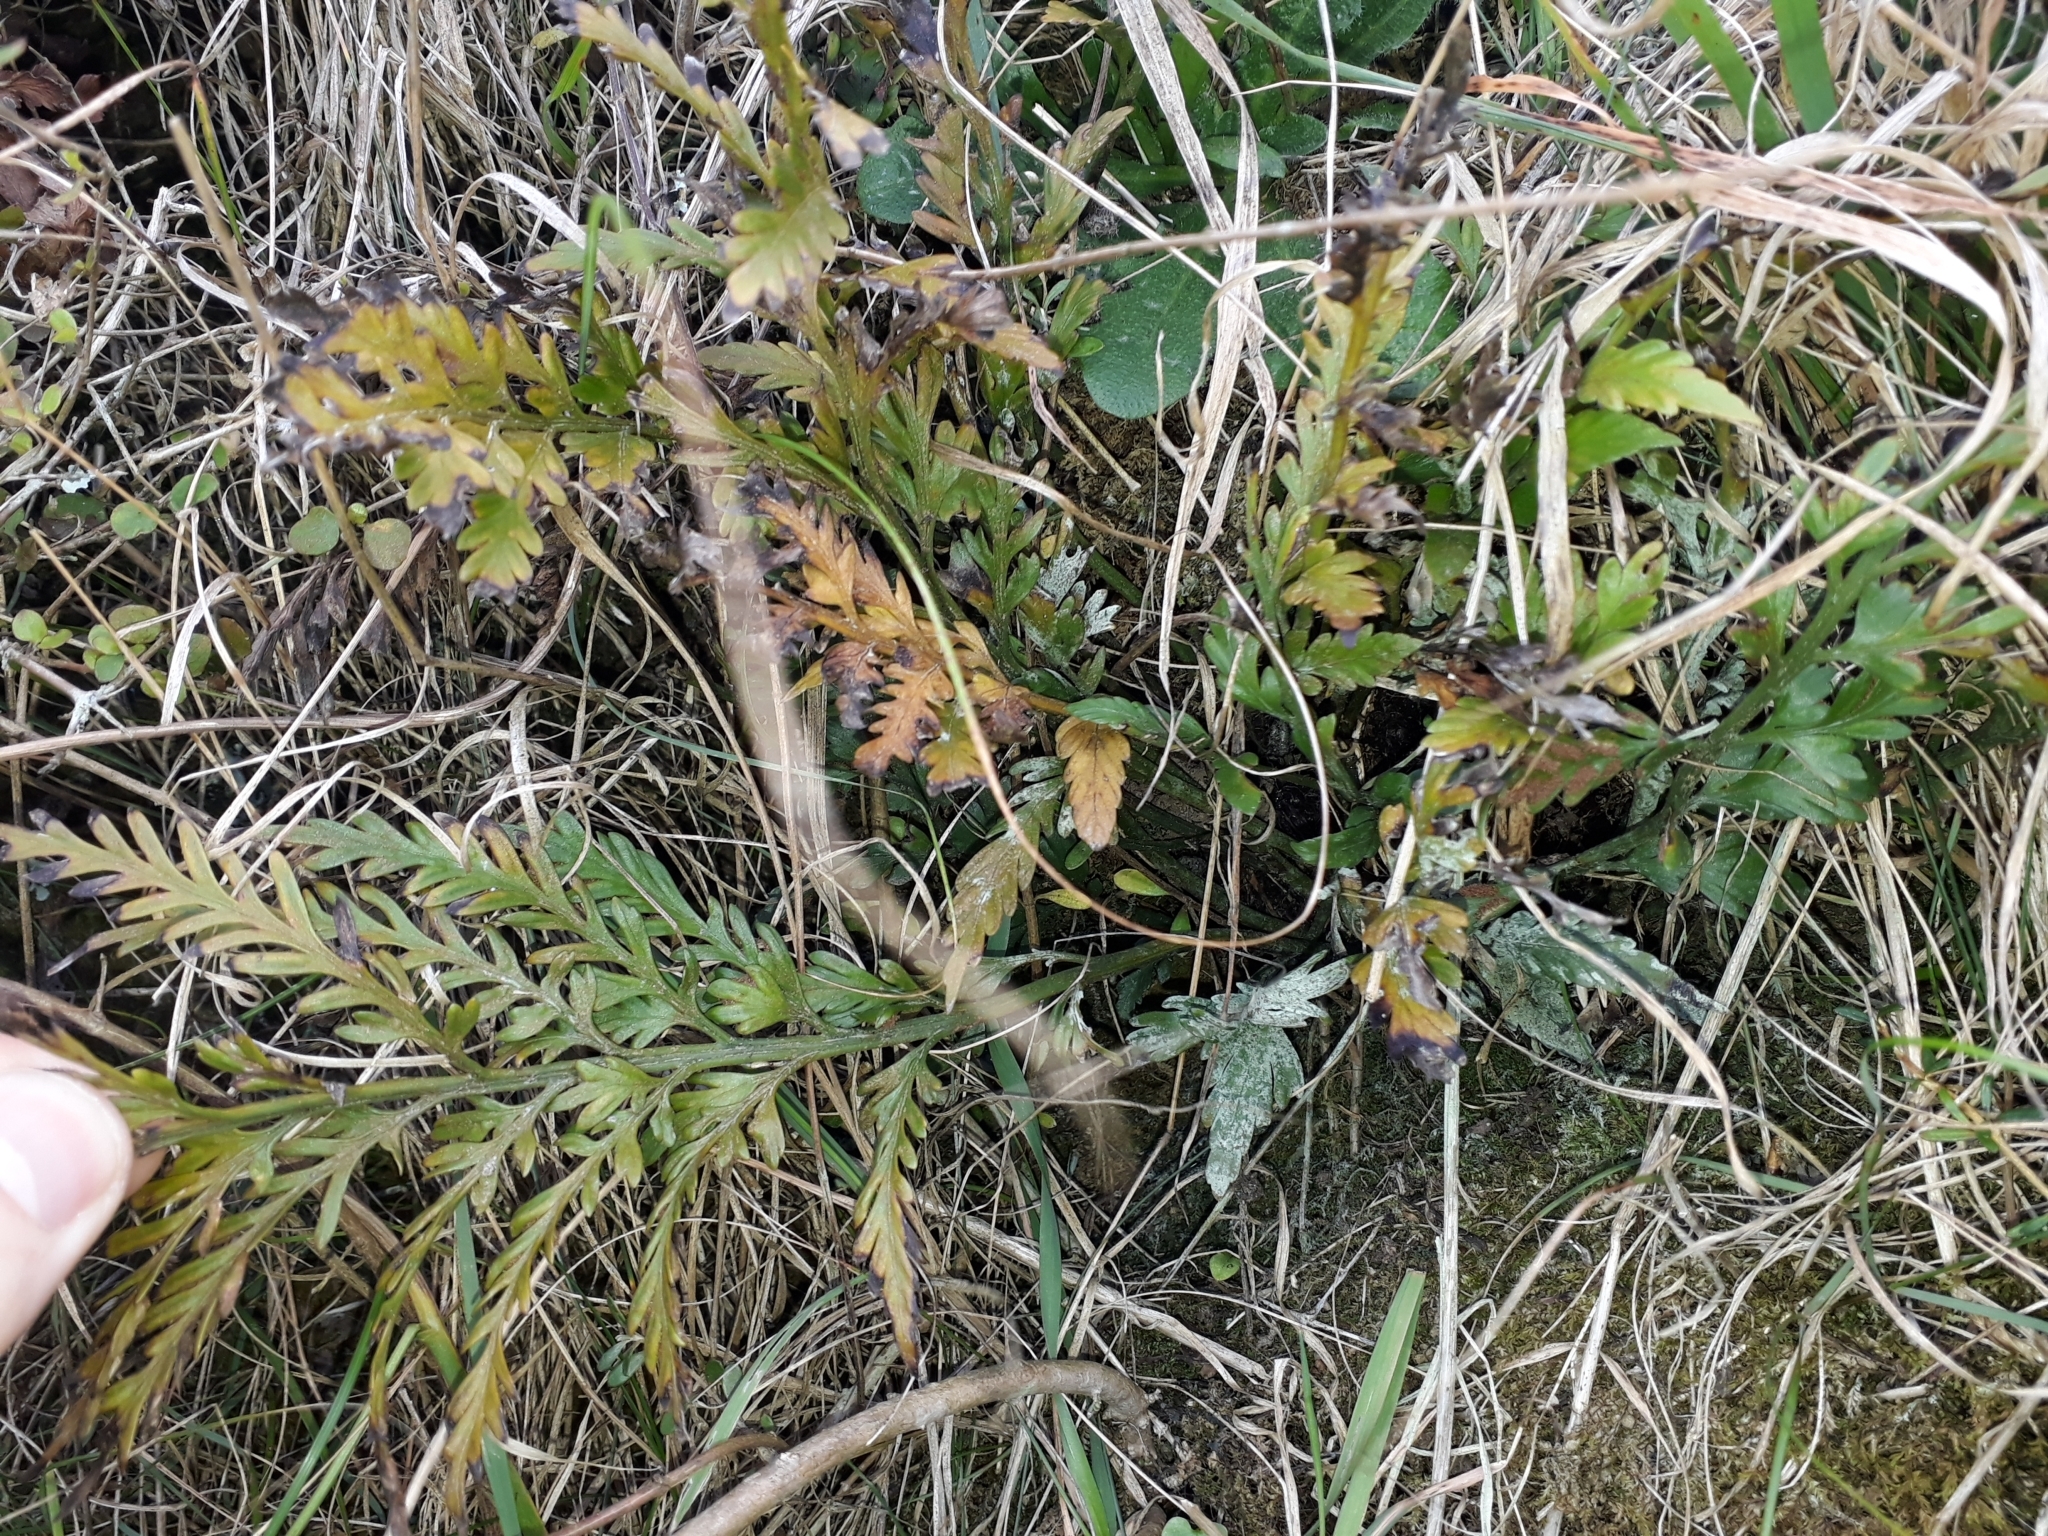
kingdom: Plantae
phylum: Tracheophyta
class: Polypodiopsida
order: Polypodiales
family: Aspleniaceae
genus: Asplenium
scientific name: Asplenium appendiculatum
